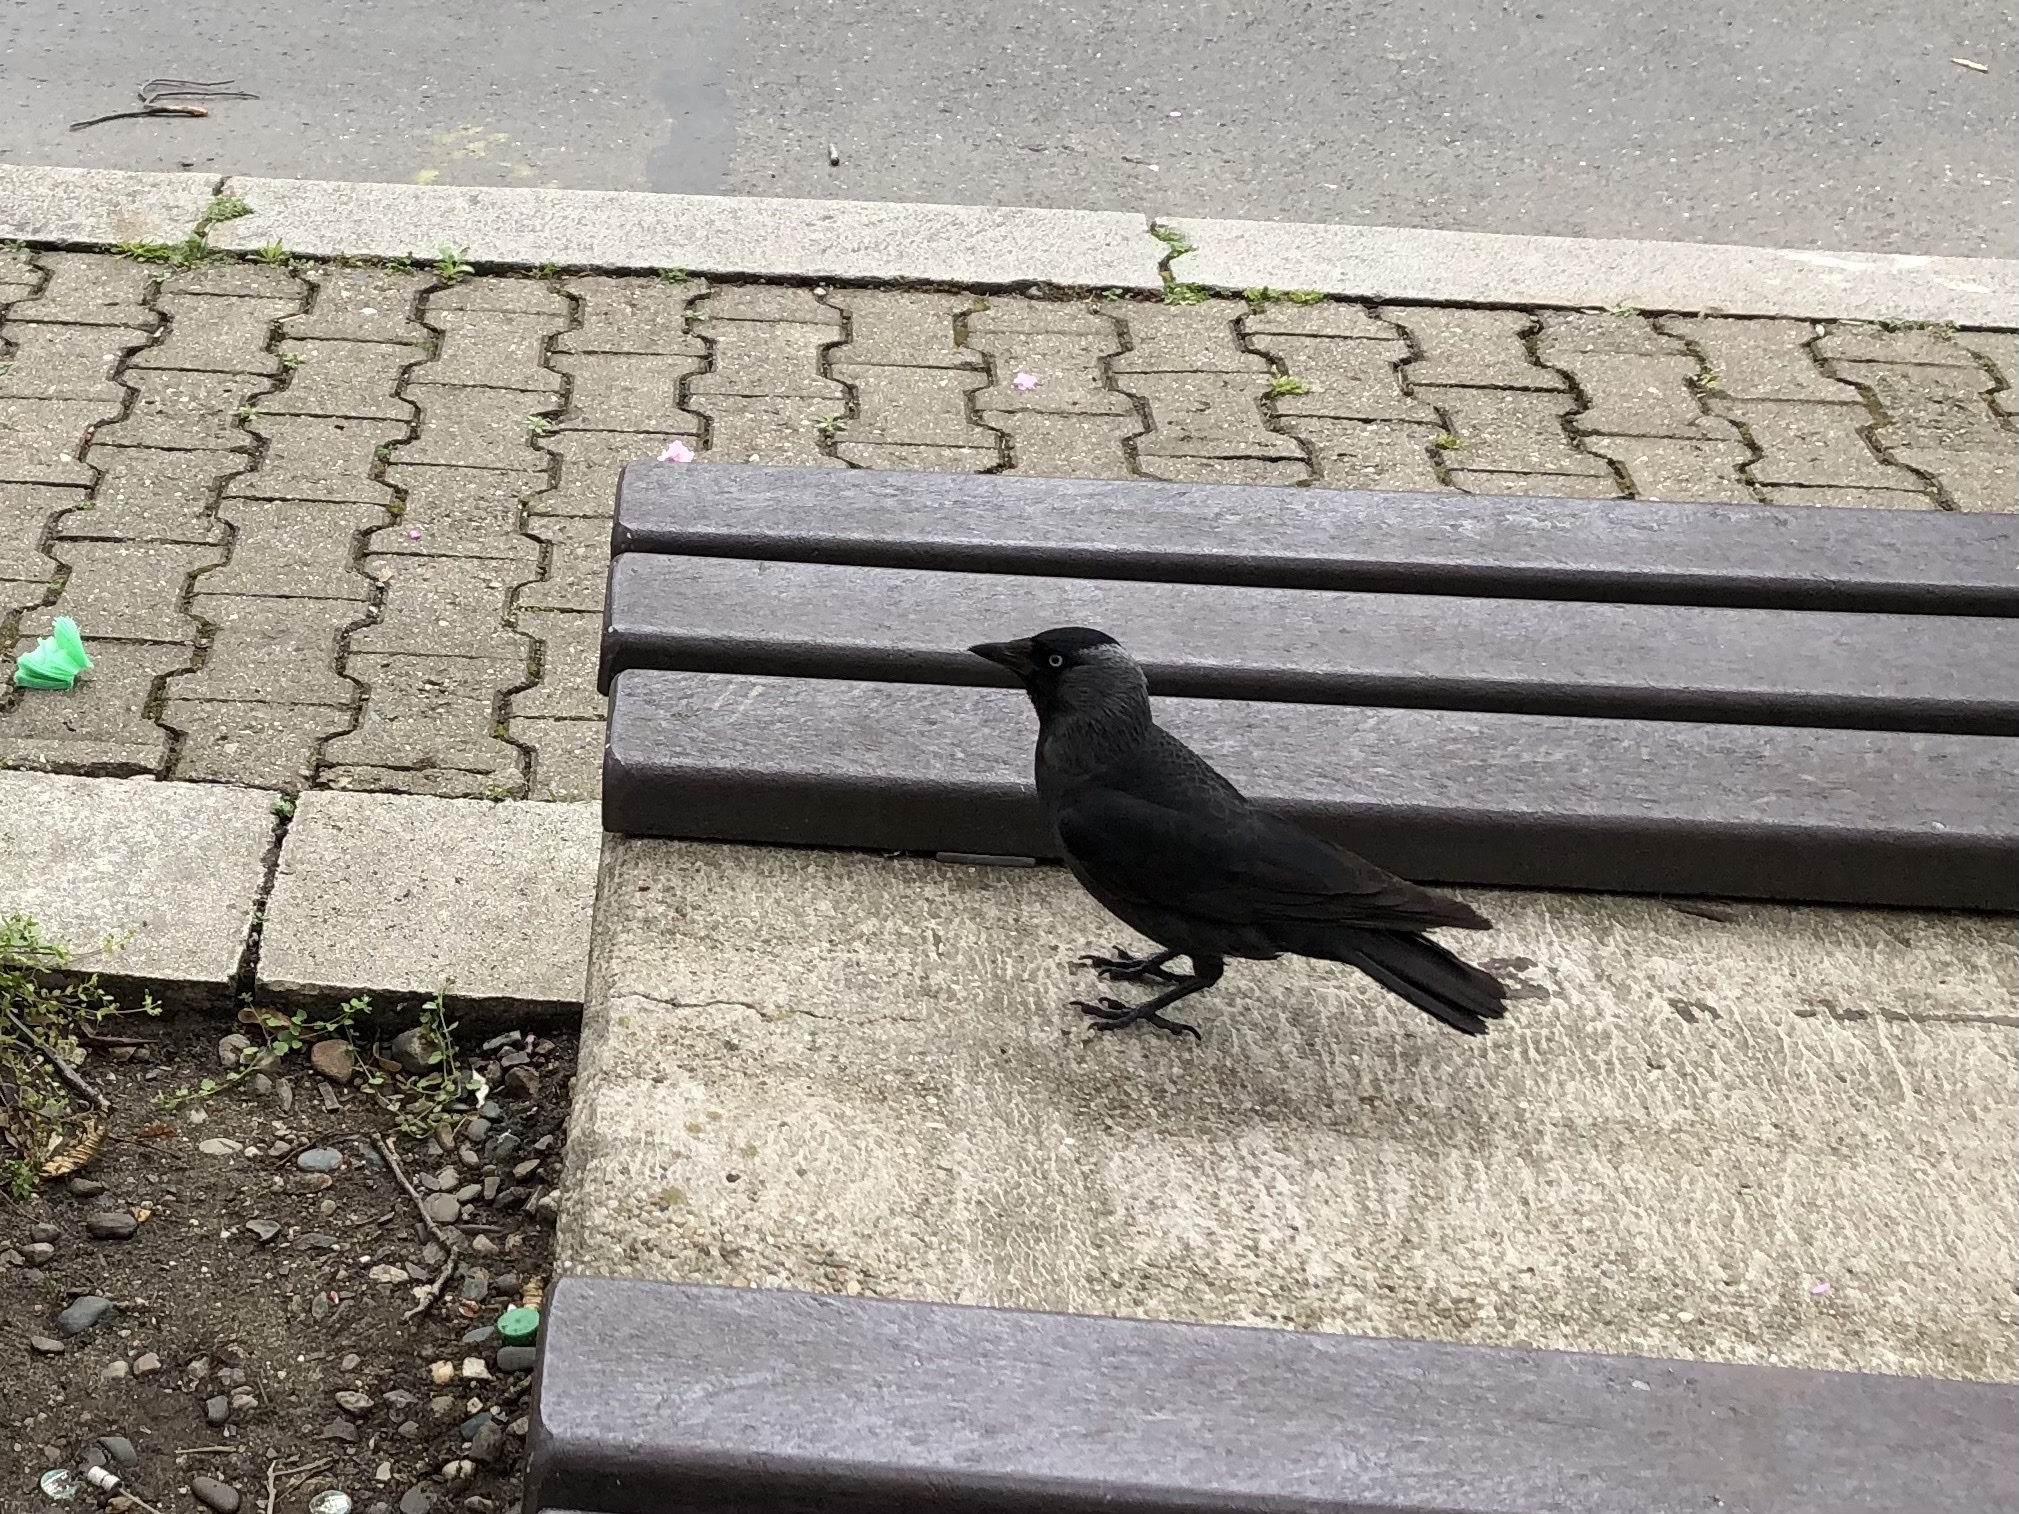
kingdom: Animalia
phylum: Chordata
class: Aves
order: Passeriformes
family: Corvidae
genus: Coloeus
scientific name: Coloeus monedula
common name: Western jackdaw
